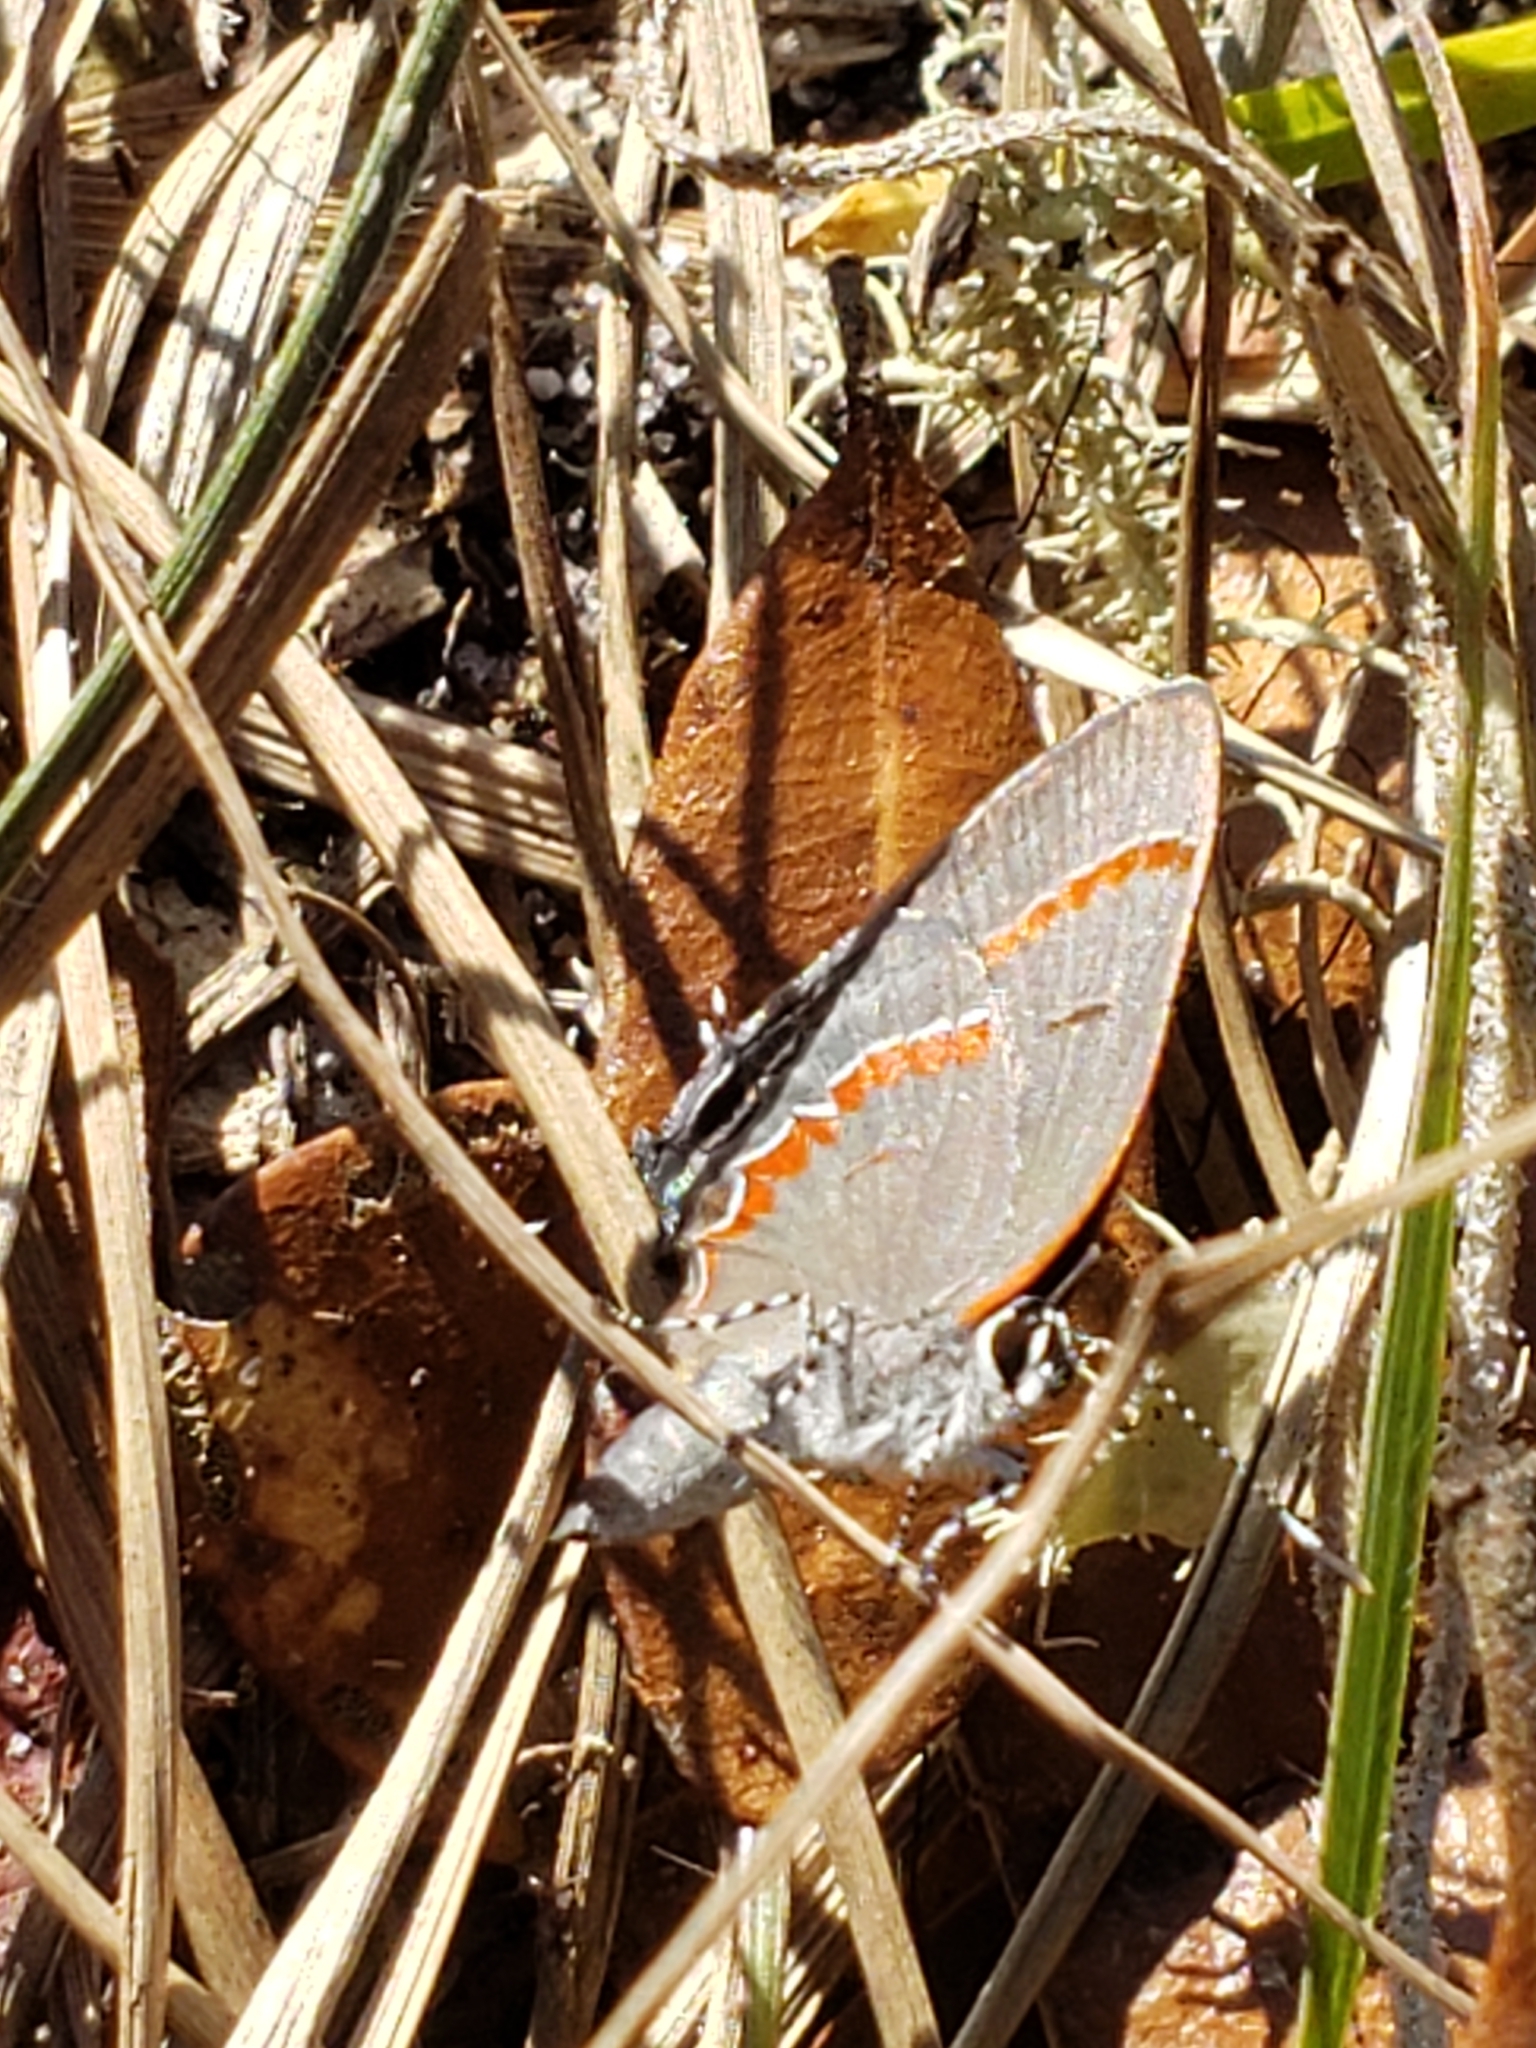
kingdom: Animalia
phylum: Arthropoda
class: Insecta
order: Lepidoptera
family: Lycaenidae
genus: Calycopis
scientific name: Calycopis cecrops
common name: Red-banded hairstreak
